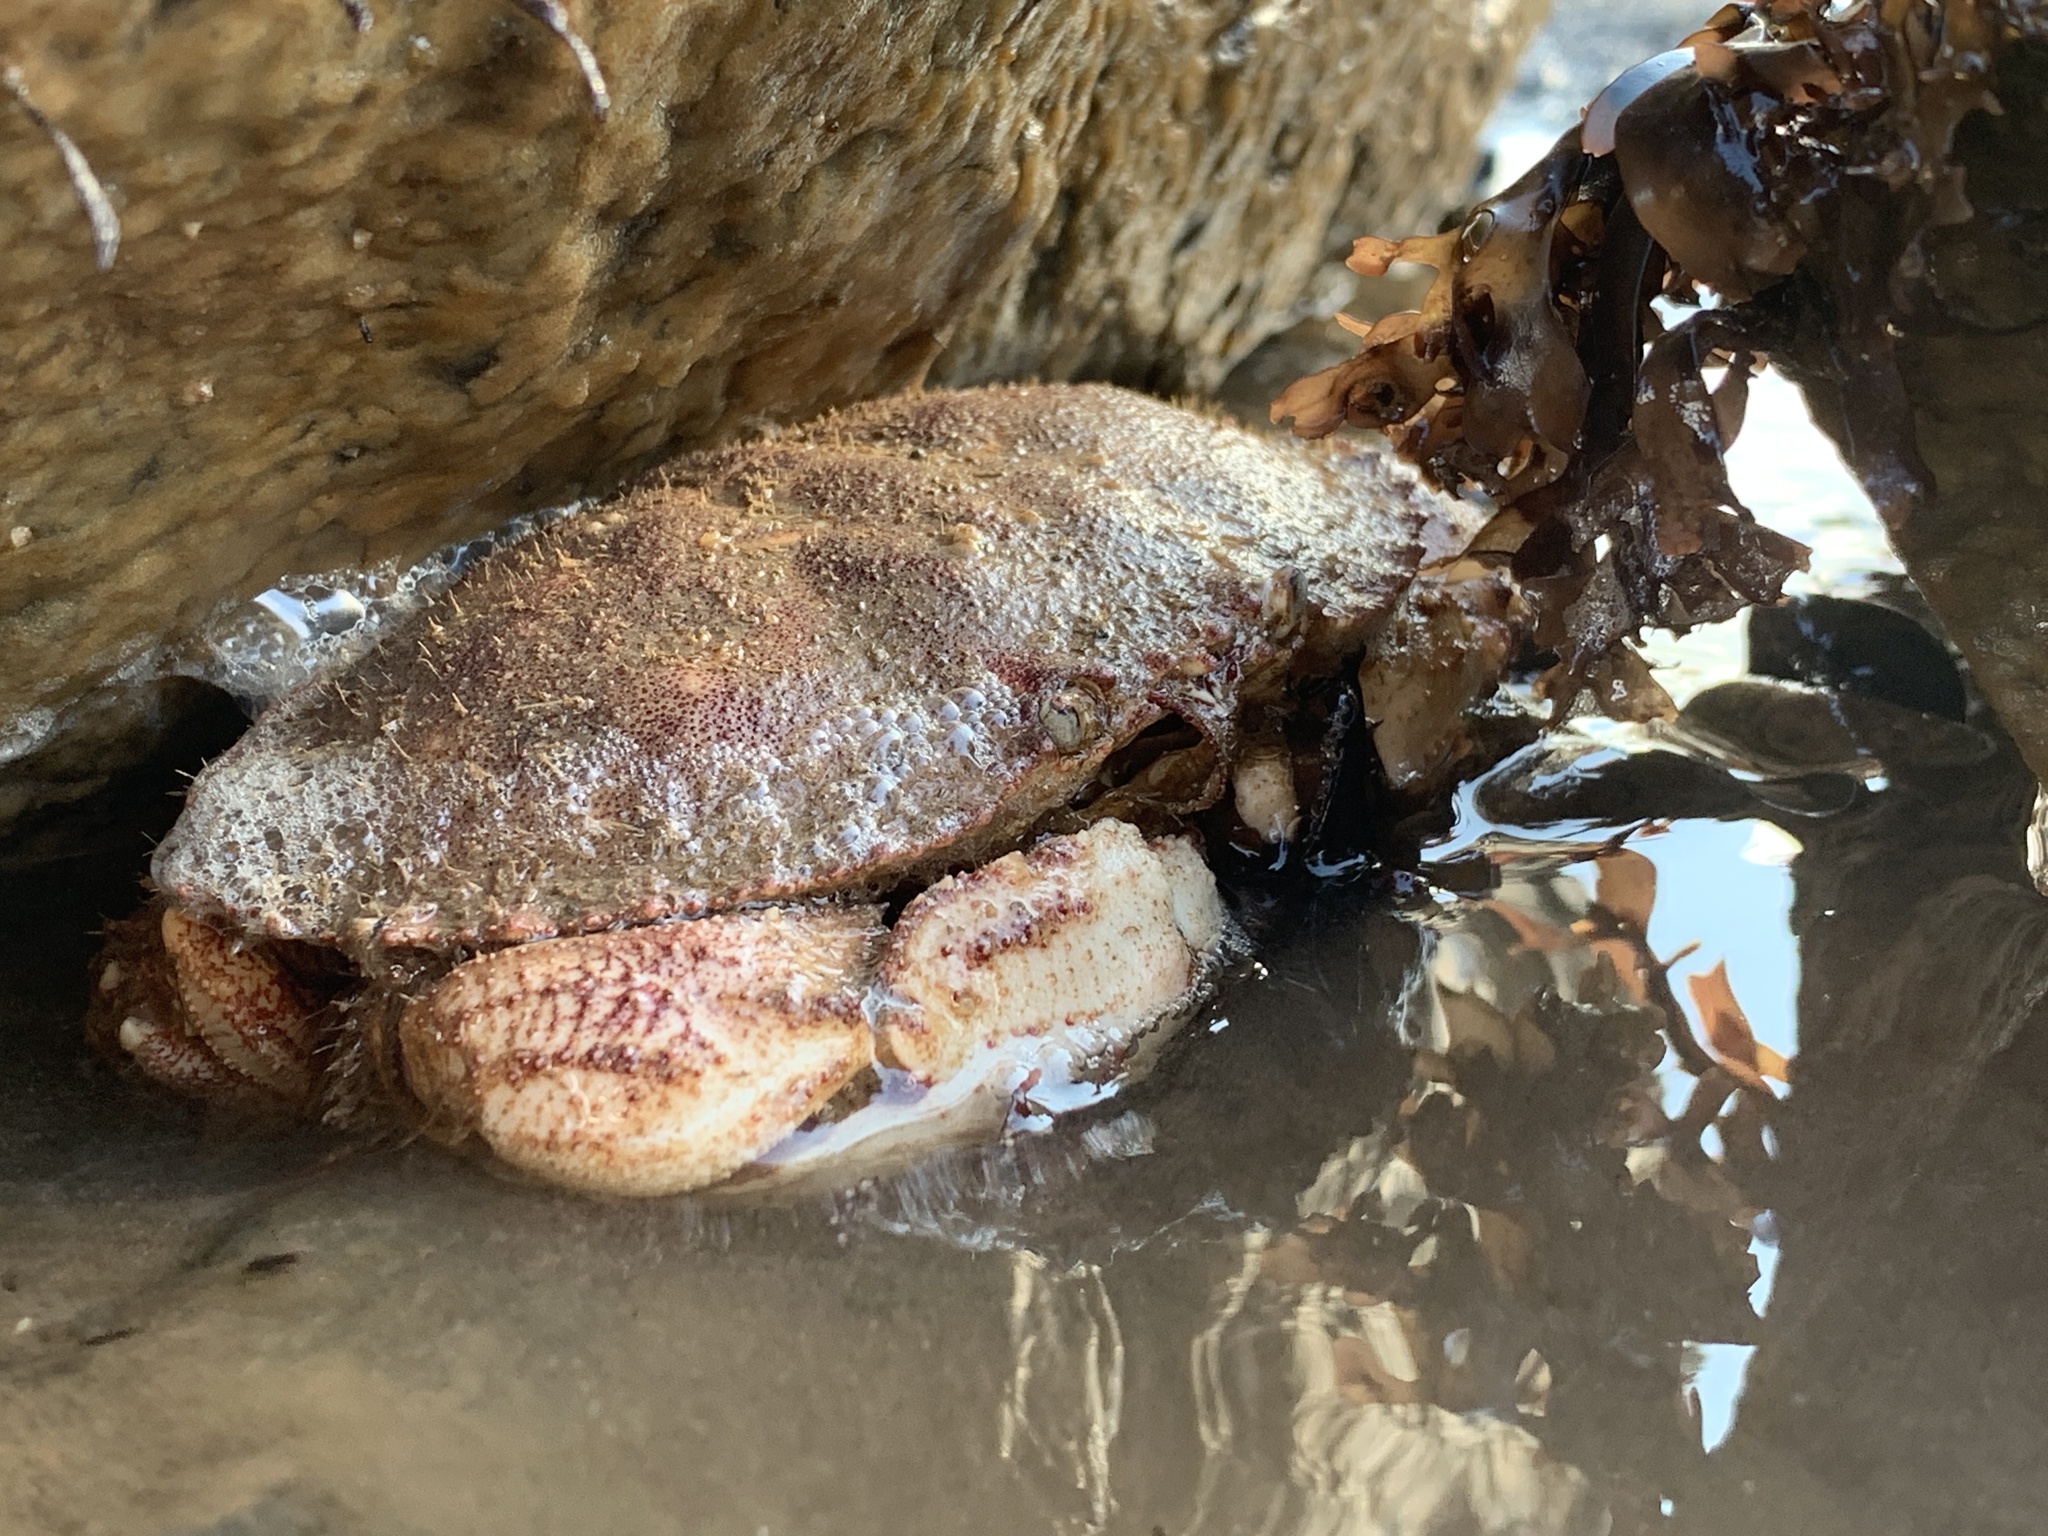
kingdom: Animalia
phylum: Arthropoda
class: Malacostraca
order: Decapoda
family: Cancridae
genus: Cancer
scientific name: Cancer borealis
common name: Jonah crab
